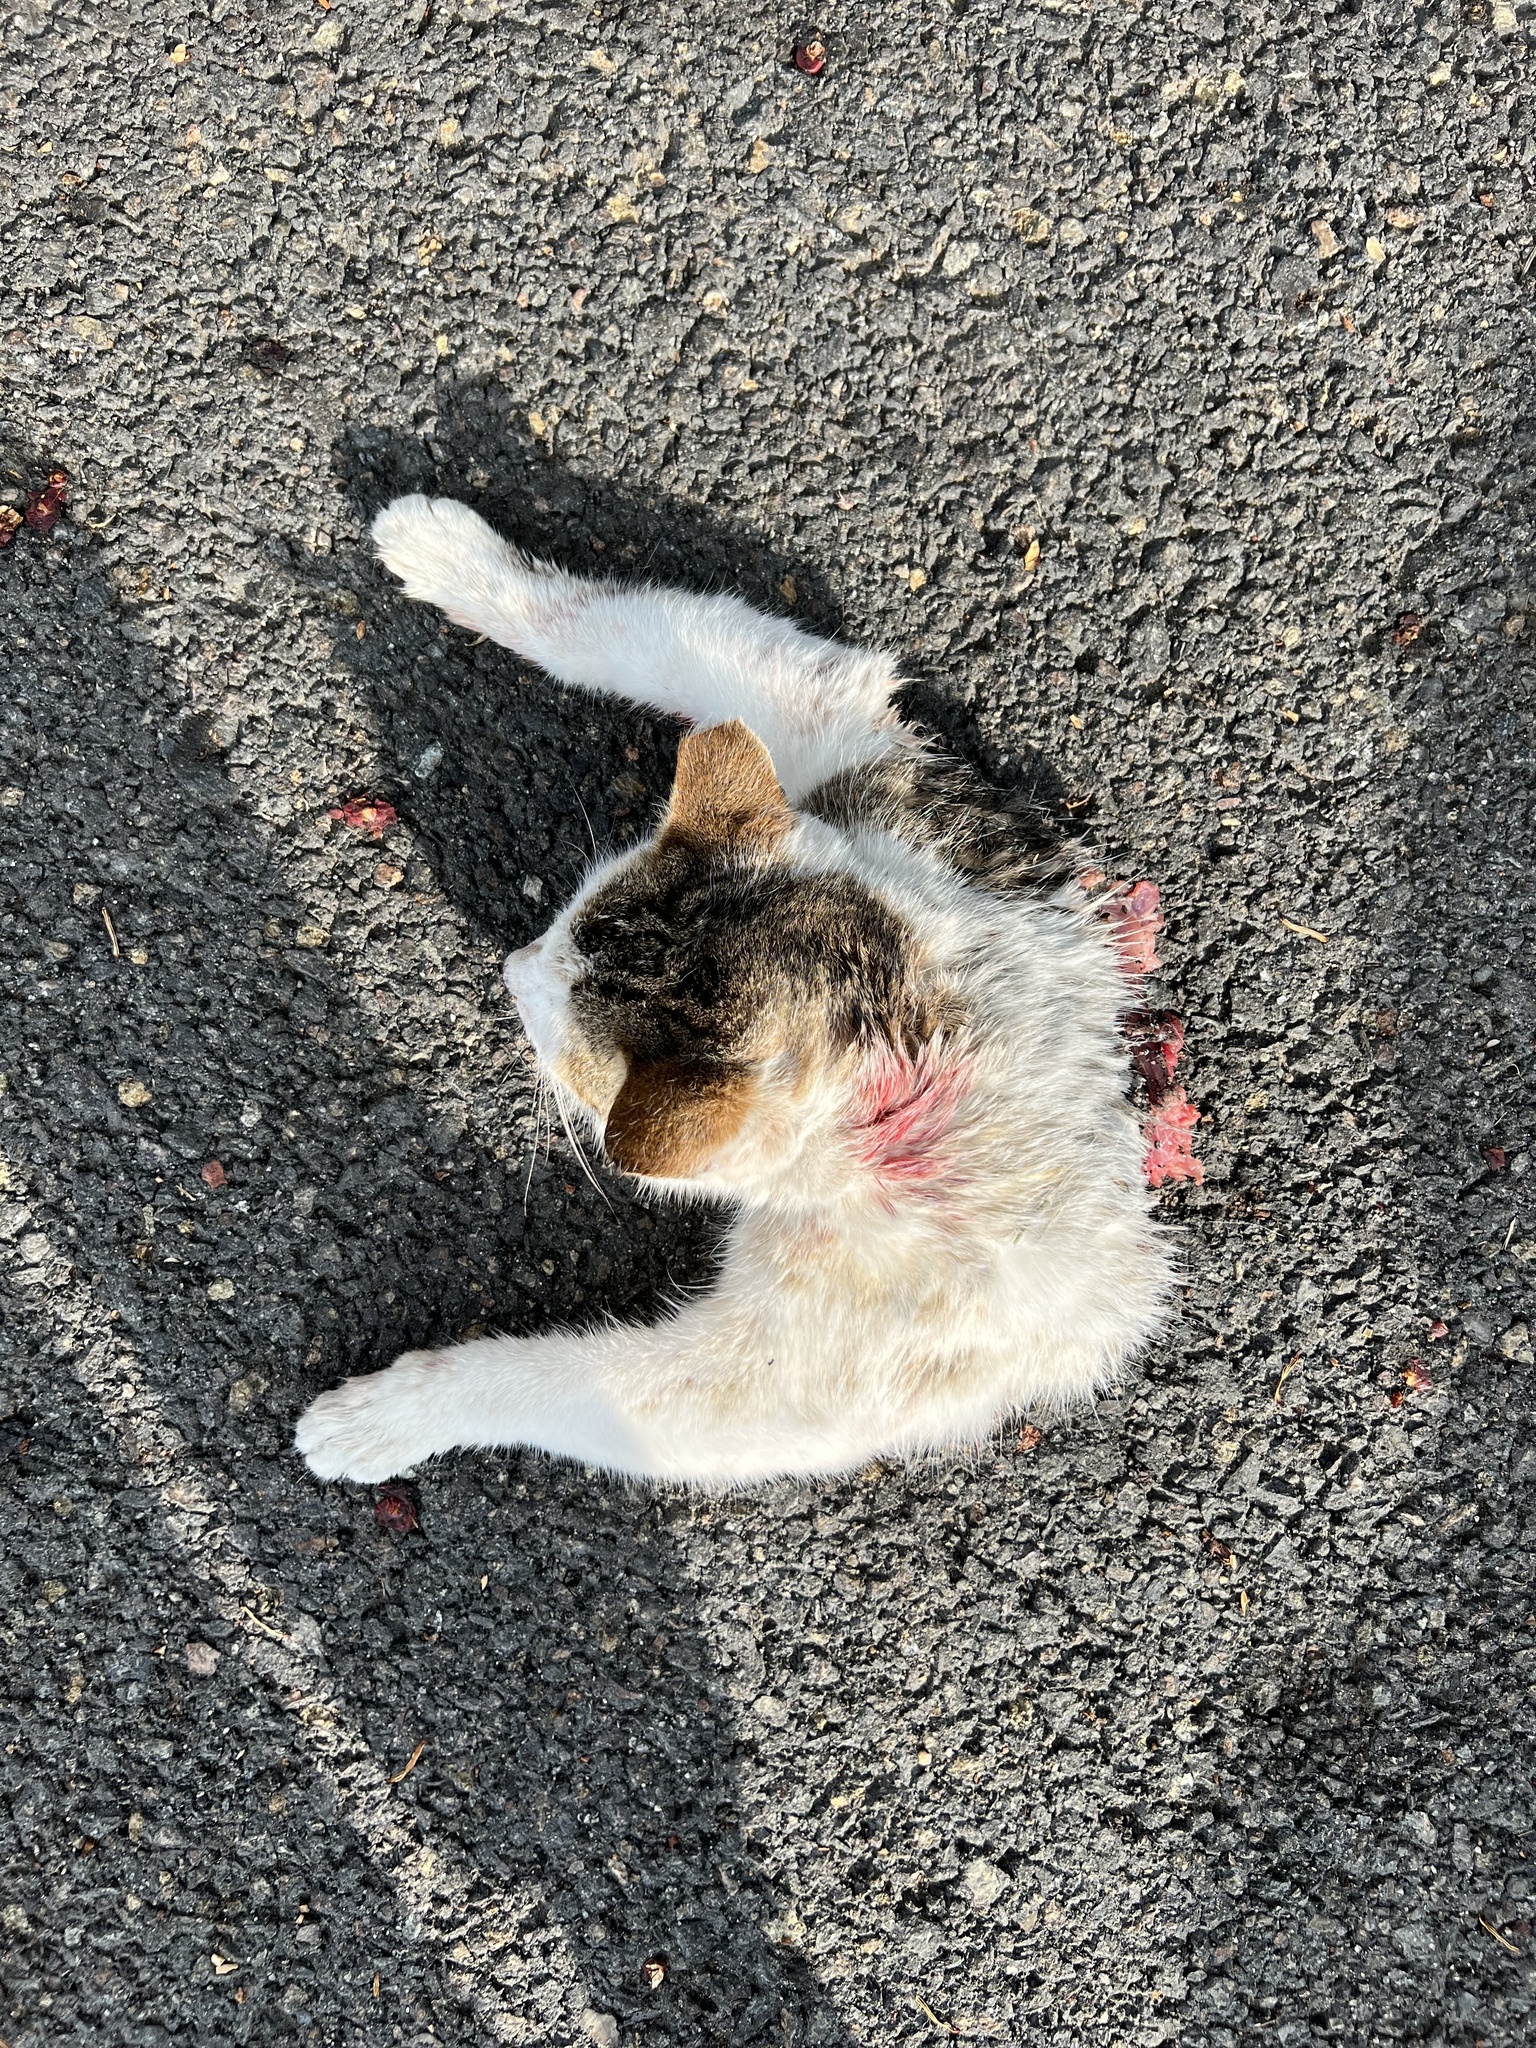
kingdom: Animalia
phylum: Chordata
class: Mammalia
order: Carnivora
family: Felidae
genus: Felis
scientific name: Felis catus
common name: Domestic cat
